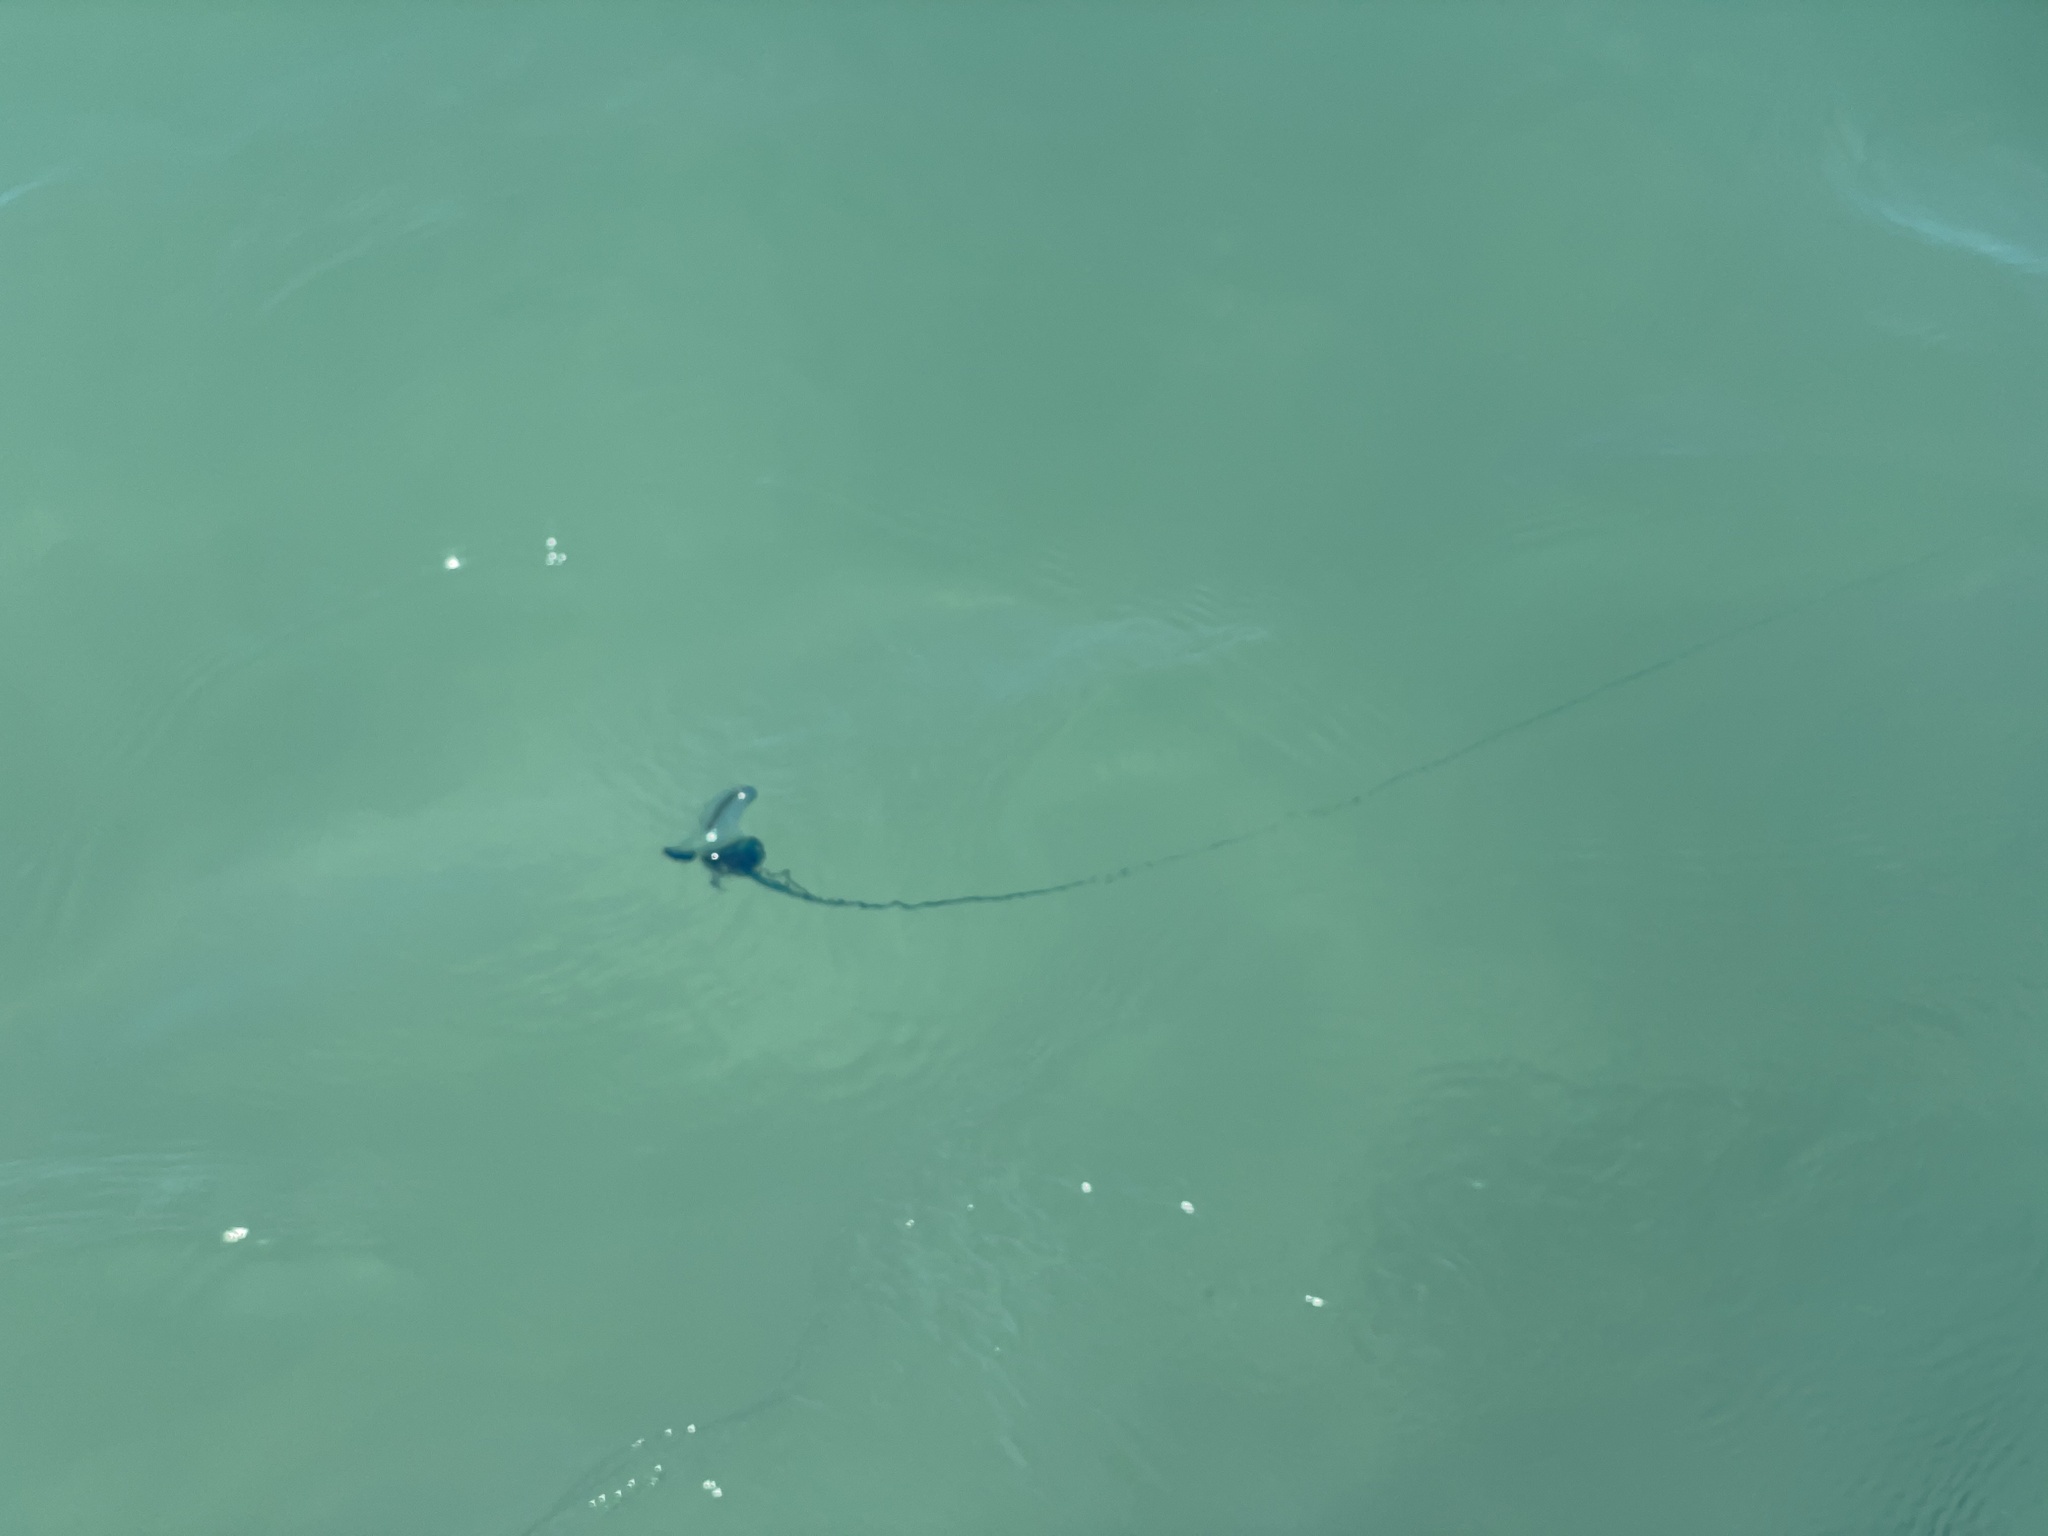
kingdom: Animalia
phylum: Cnidaria
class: Hydrozoa
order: Siphonophorae
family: Physaliidae
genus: Physalia
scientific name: Physalia physalis
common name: Portuguese man-of-war
